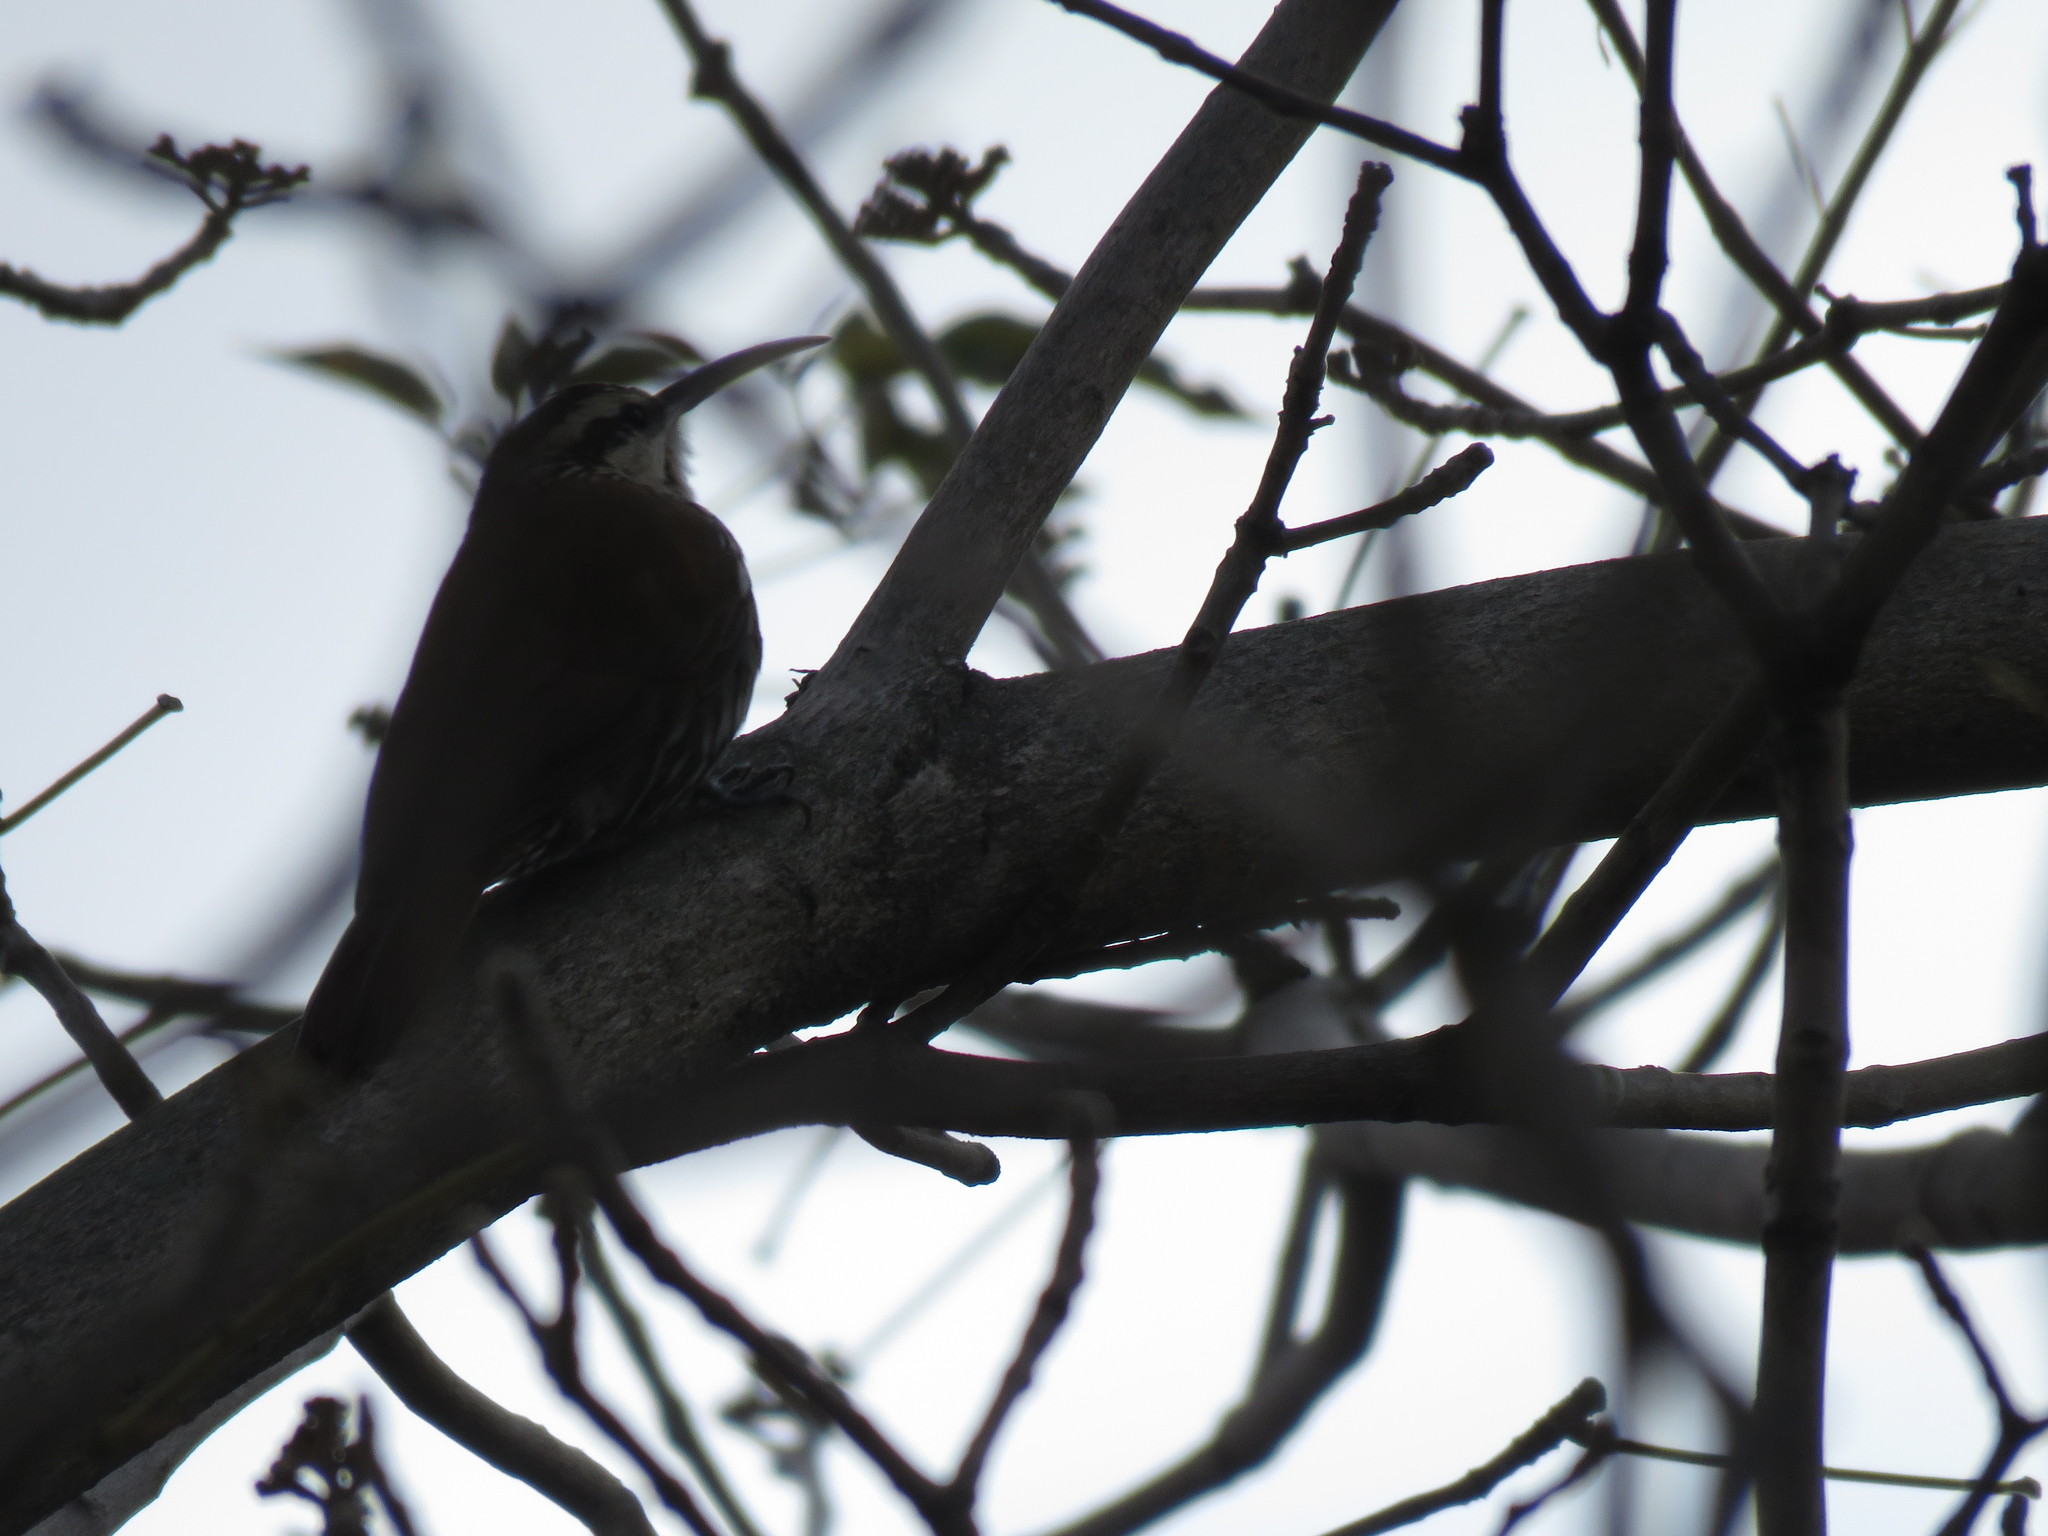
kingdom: Animalia
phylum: Chordata
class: Aves
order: Passeriformes
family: Furnariidae
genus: Lepidocolaptes
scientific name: Lepidocolaptes angustirostris
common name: Narrow-billed woodcreeper
